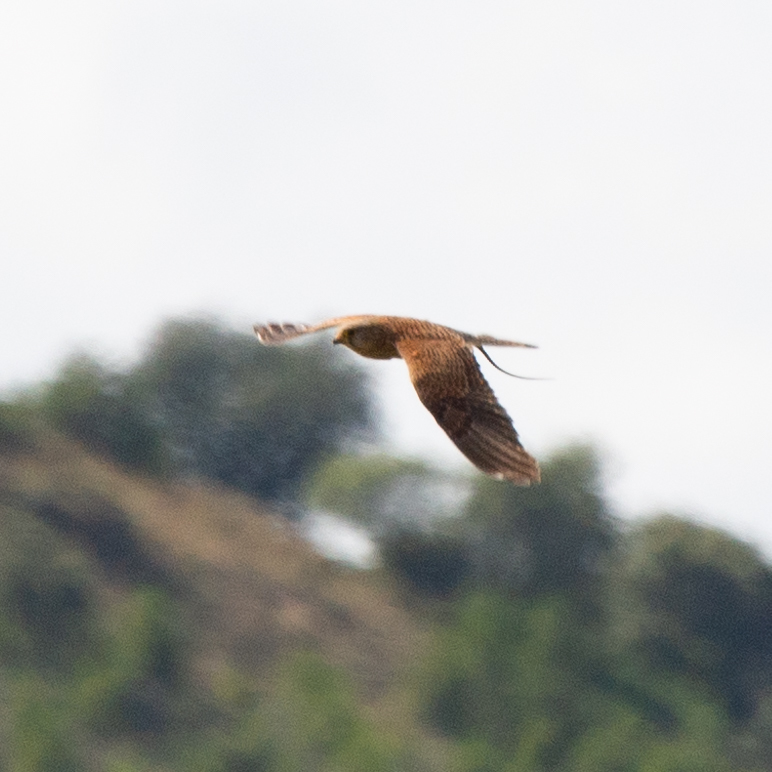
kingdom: Animalia
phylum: Chordata
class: Aves
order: Falconiformes
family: Falconidae
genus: Falco
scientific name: Falco tinnunculus
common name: Common kestrel
